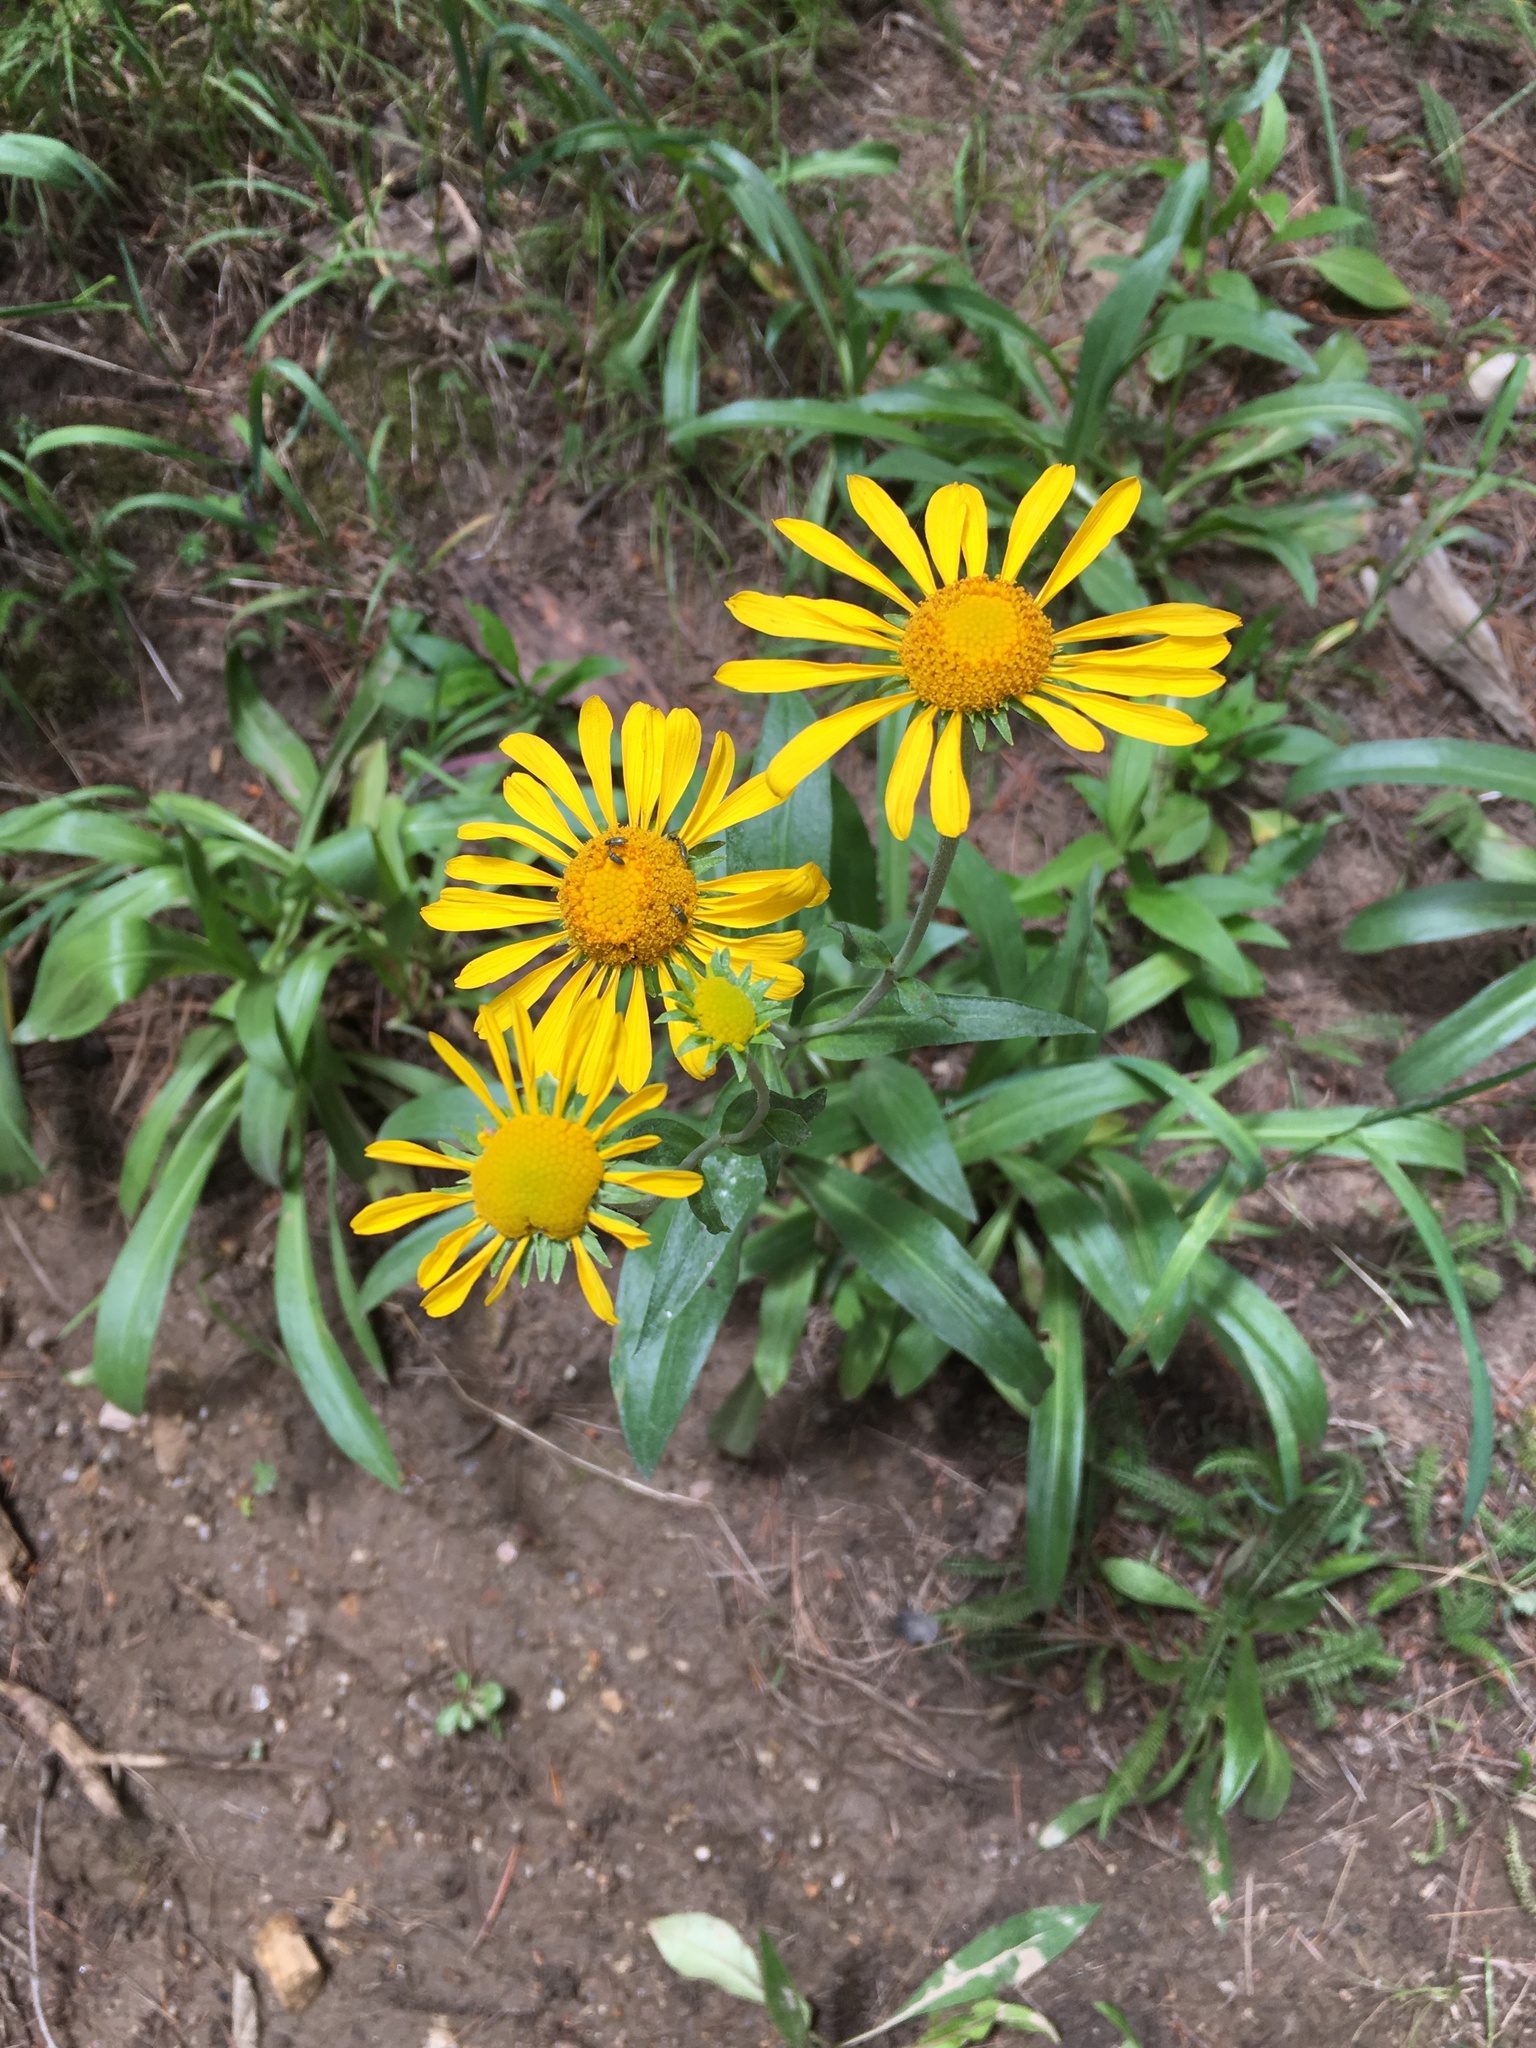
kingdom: Plantae
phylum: Tracheophyta
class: Magnoliopsida
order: Asterales
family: Asteraceae
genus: Hymenoxys
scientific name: Hymenoxys hoopesii
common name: Orange-sneezeweed
